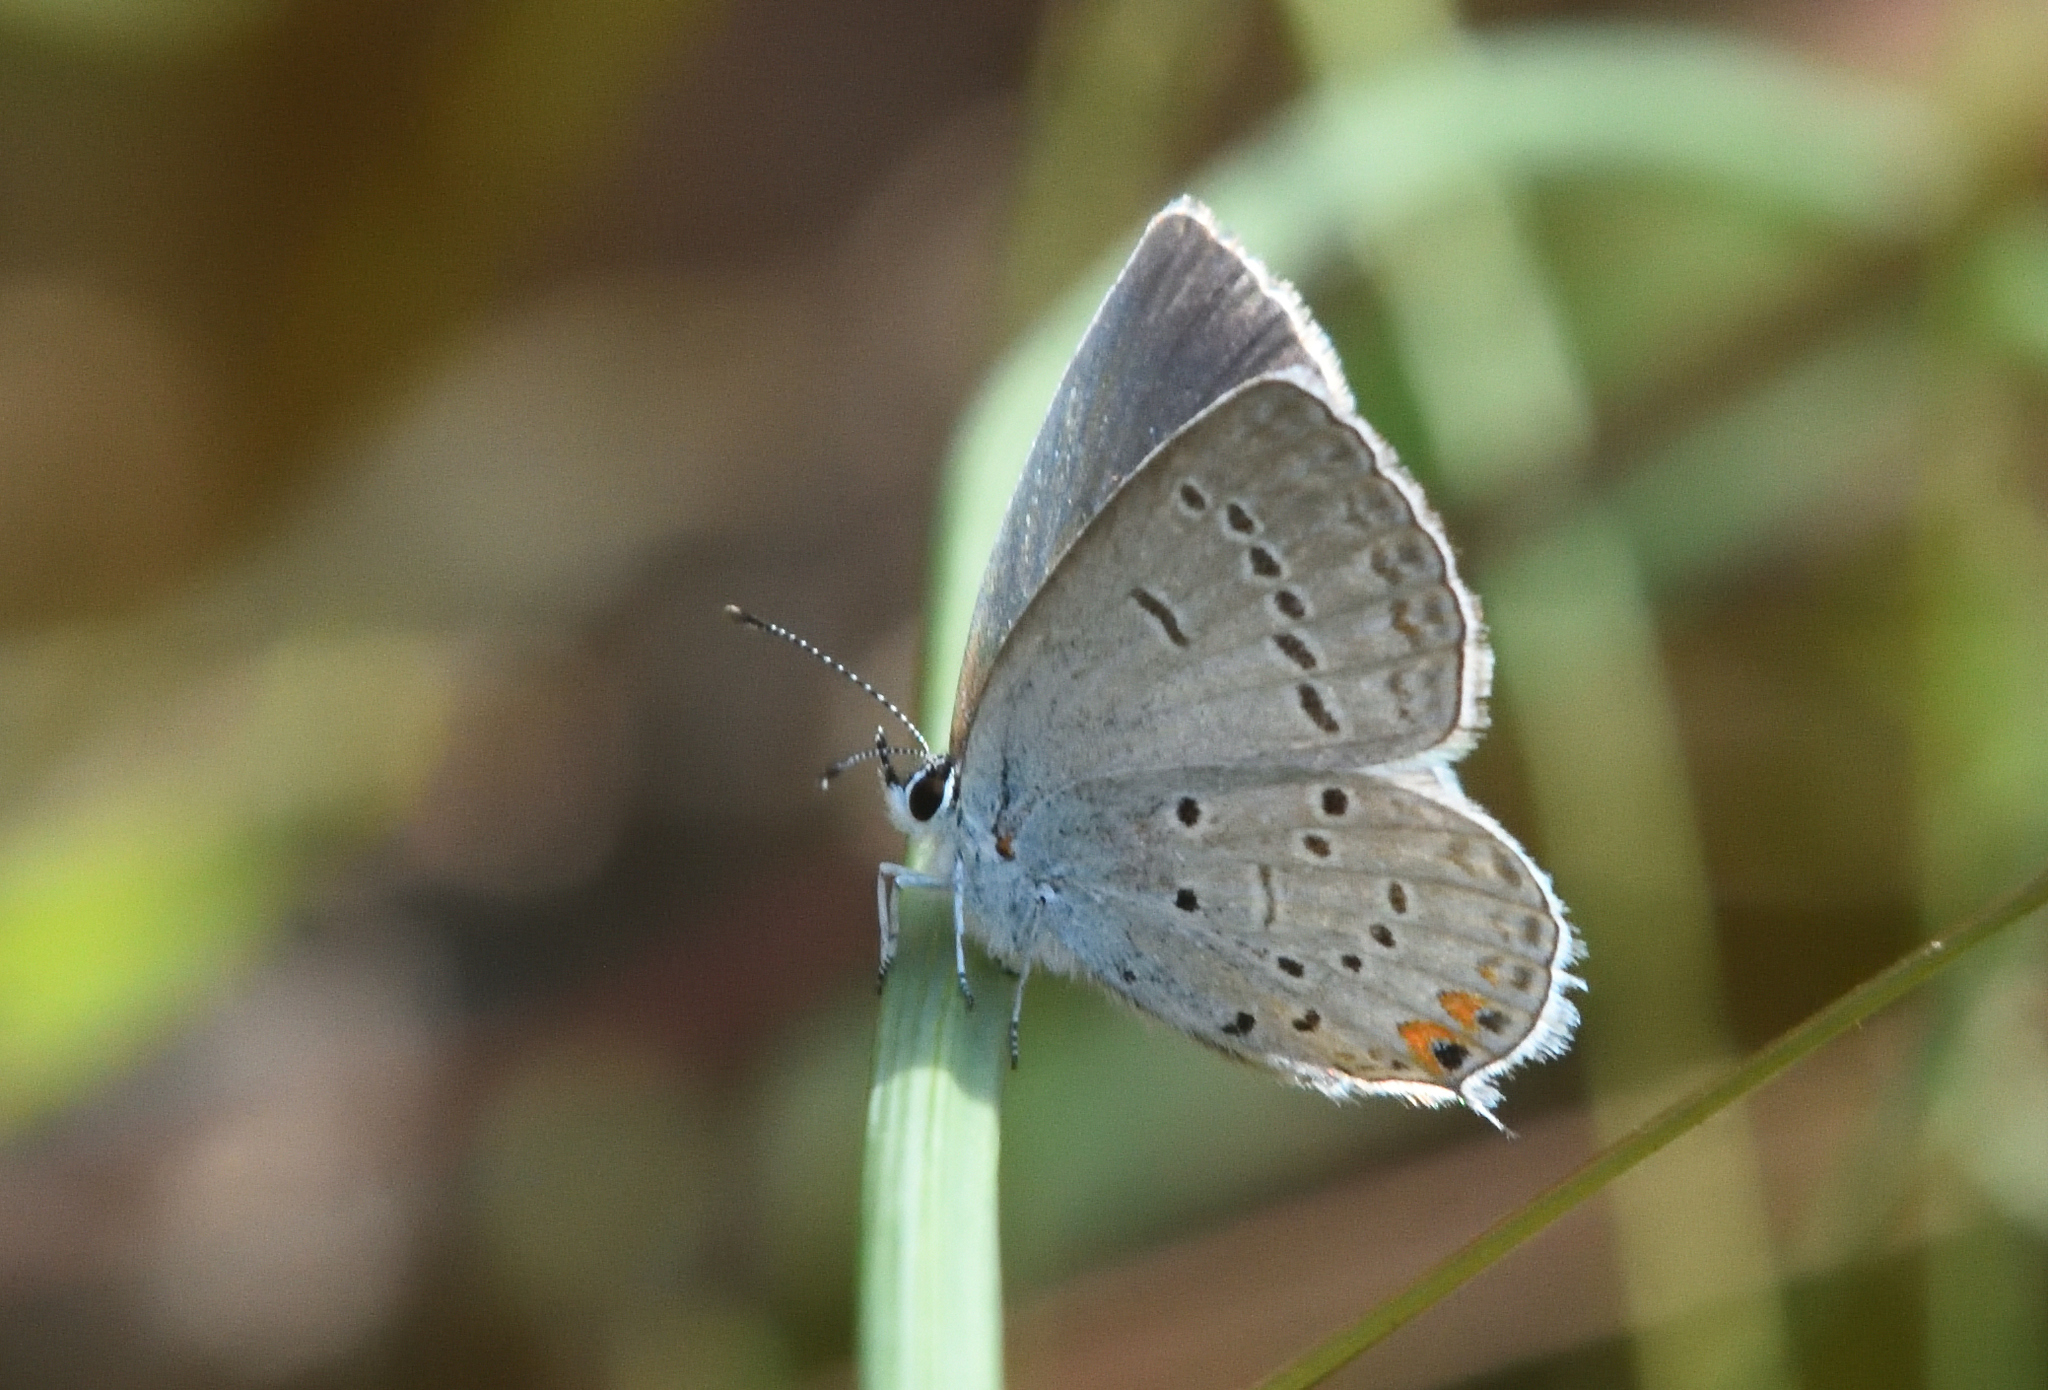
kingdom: Animalia
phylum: Arthropoda
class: Insecta
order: Lepidoptera
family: Lycaenidae
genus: Elkalyce
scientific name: Elkalyce comyntas
